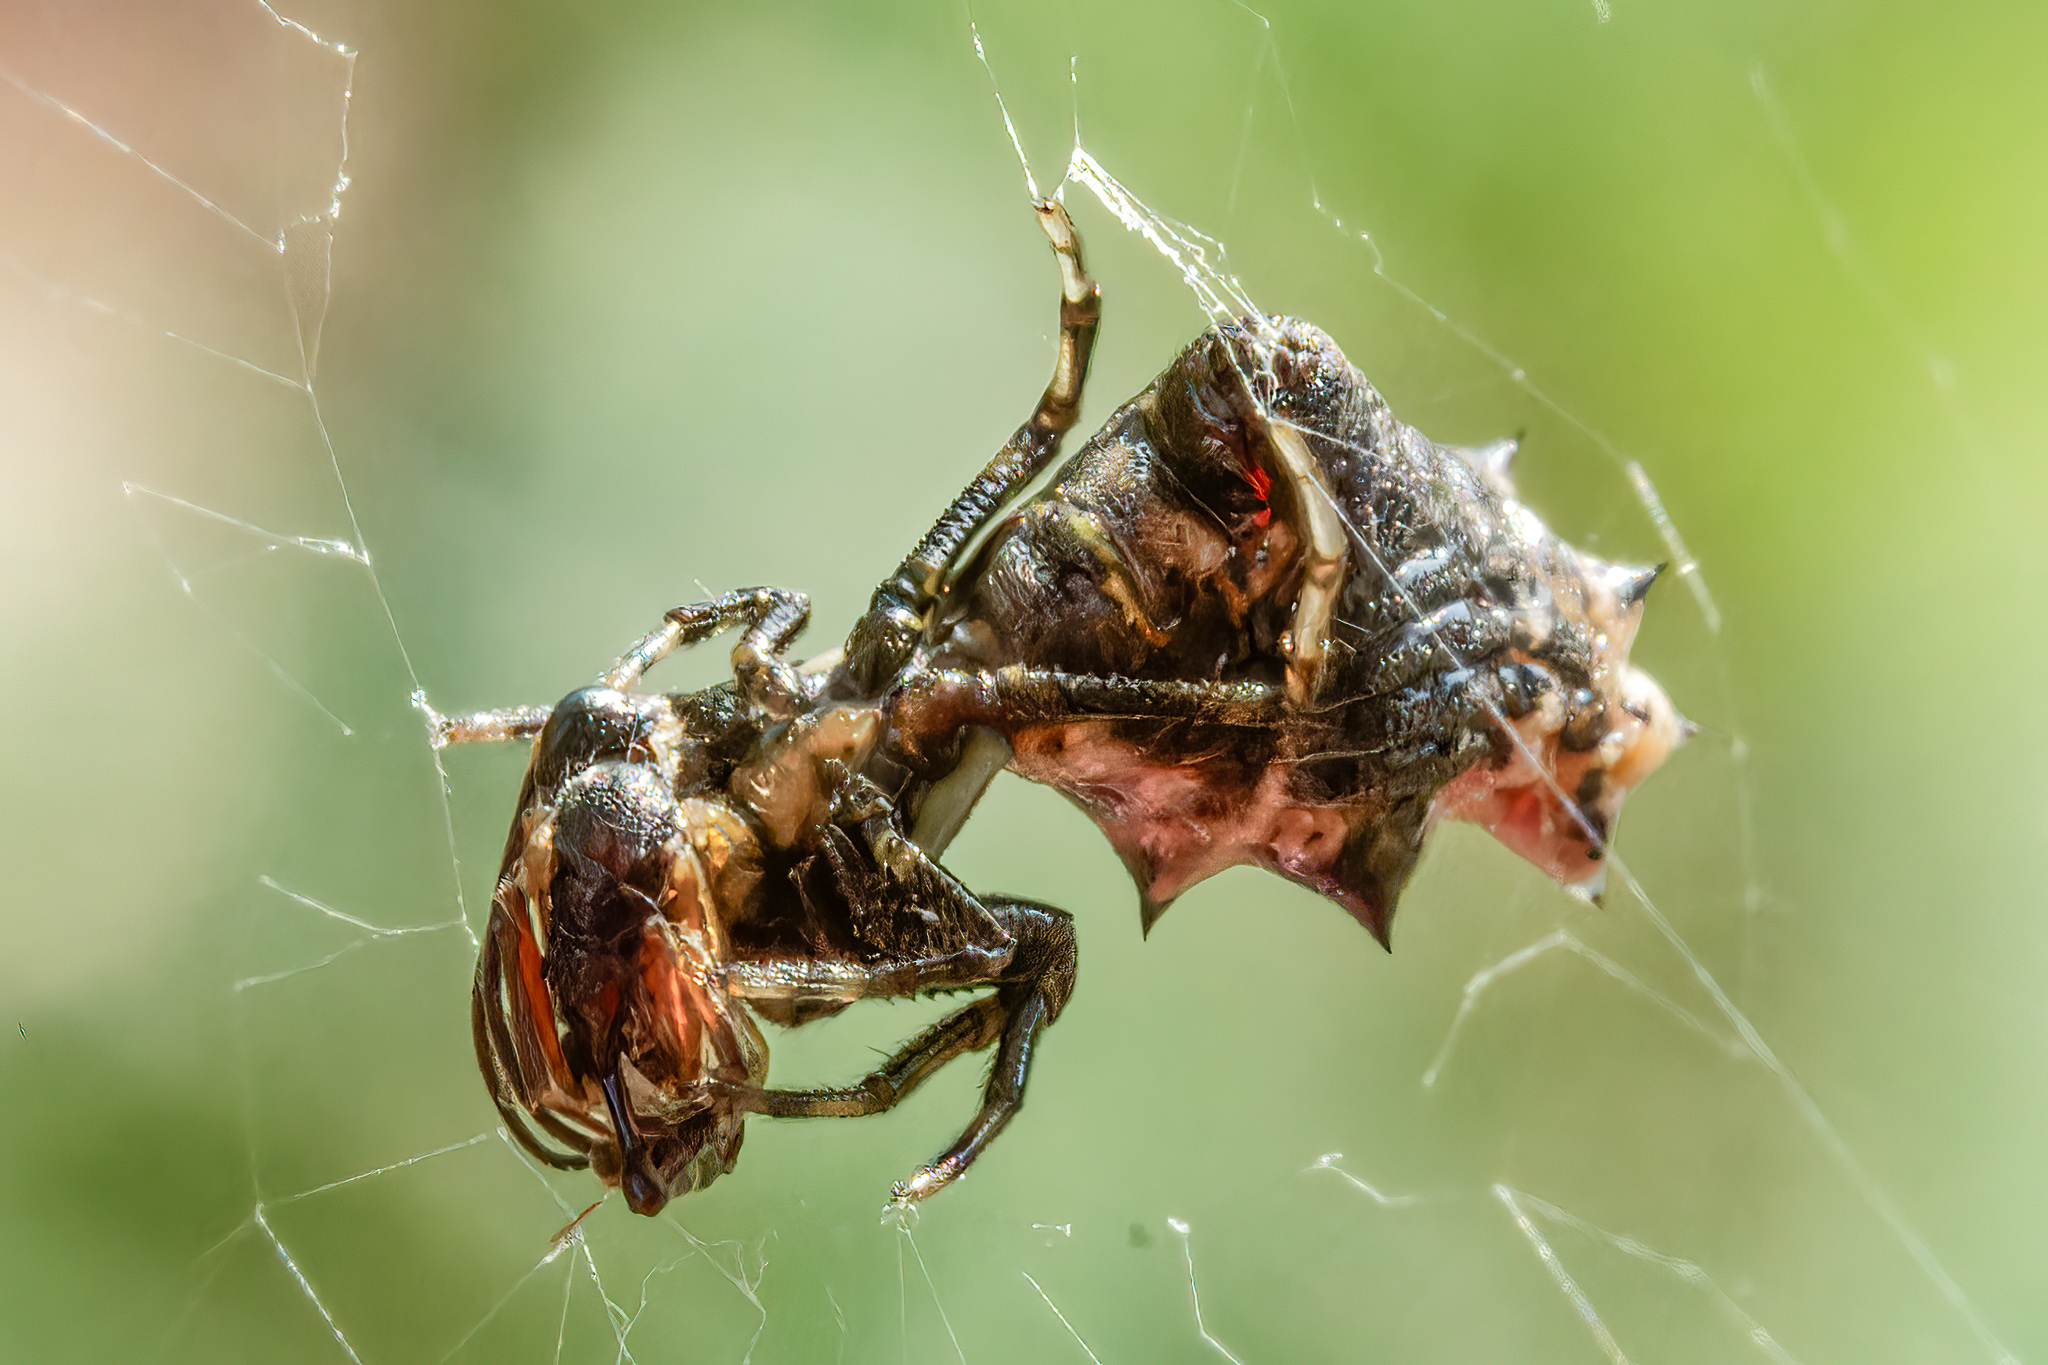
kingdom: Animalia
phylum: Arthropoda
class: Arachnida
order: Araneae
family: Araneidae
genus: Micrathena
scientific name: Micrathena gracilis
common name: Orb weavers
